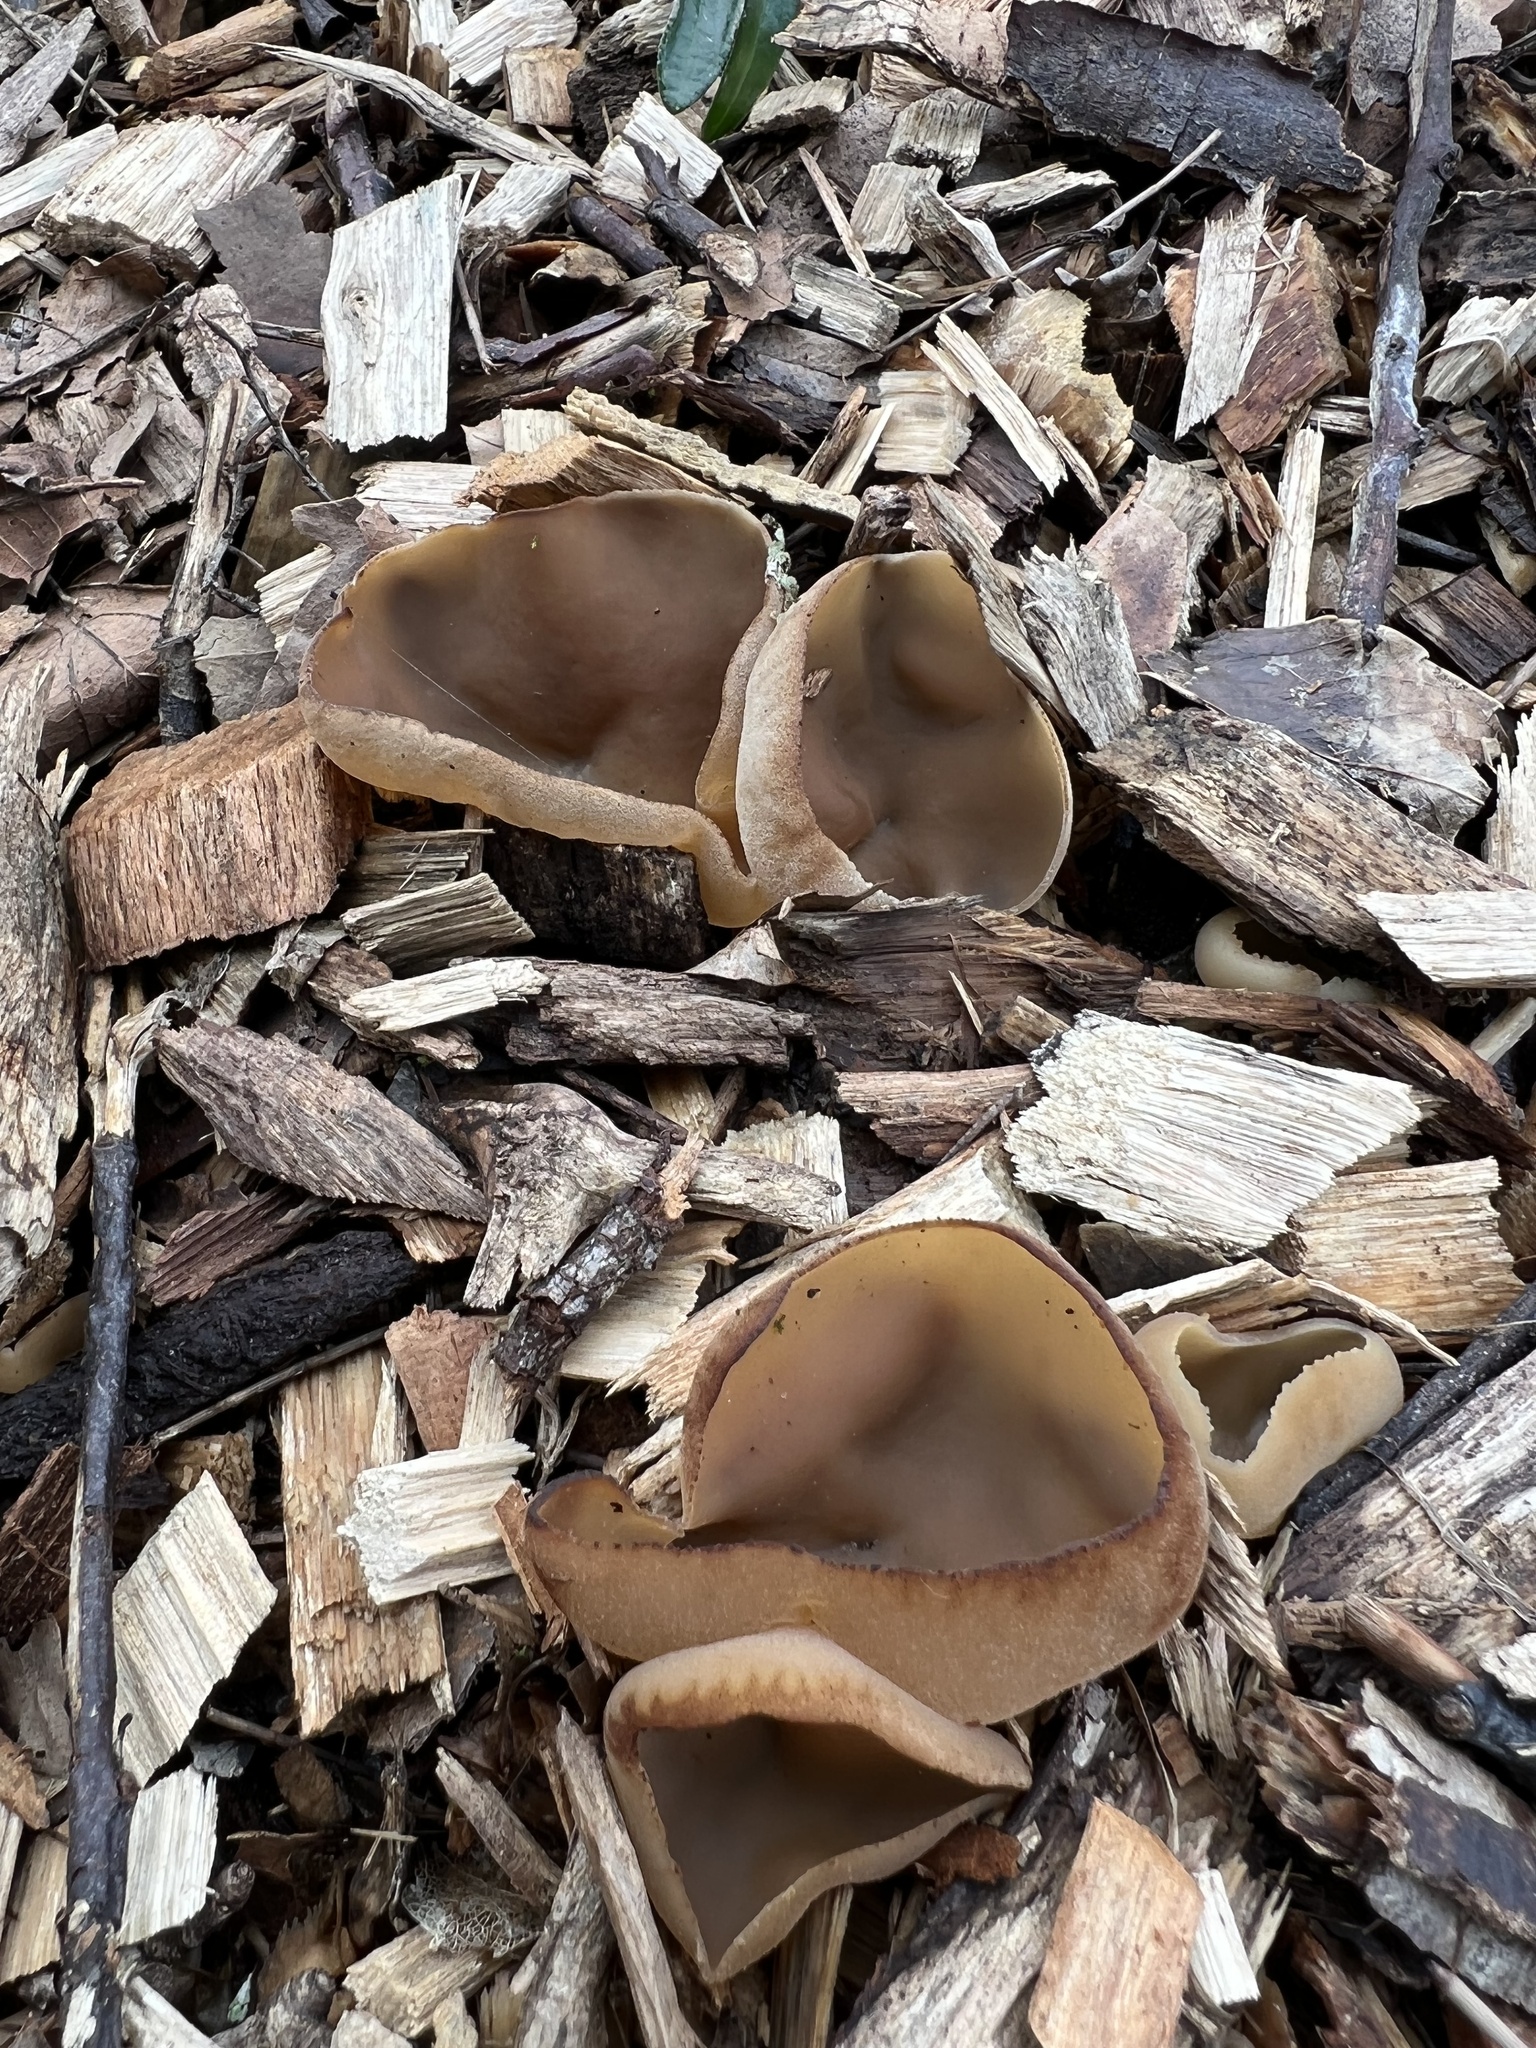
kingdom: Fungi
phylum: Ascomycota
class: Pezizomycetes
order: Pezizales
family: Pezizaceae
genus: Peziza
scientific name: Peziza varia
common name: Layered cup
